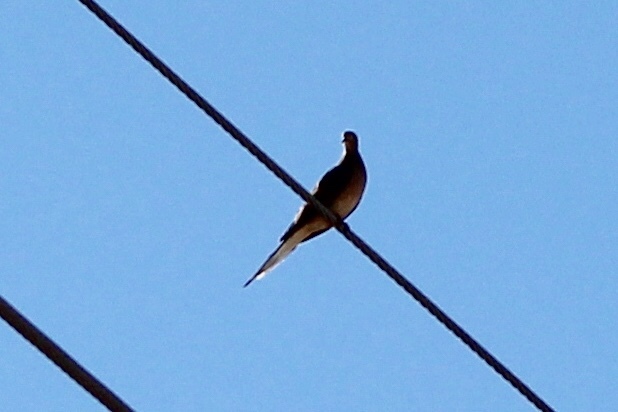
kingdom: Animalia
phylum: Chordata
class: Aves
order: Columbiformes
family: Columbidae
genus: Zenaida
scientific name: Zenaida macroura
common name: Mourning dove
